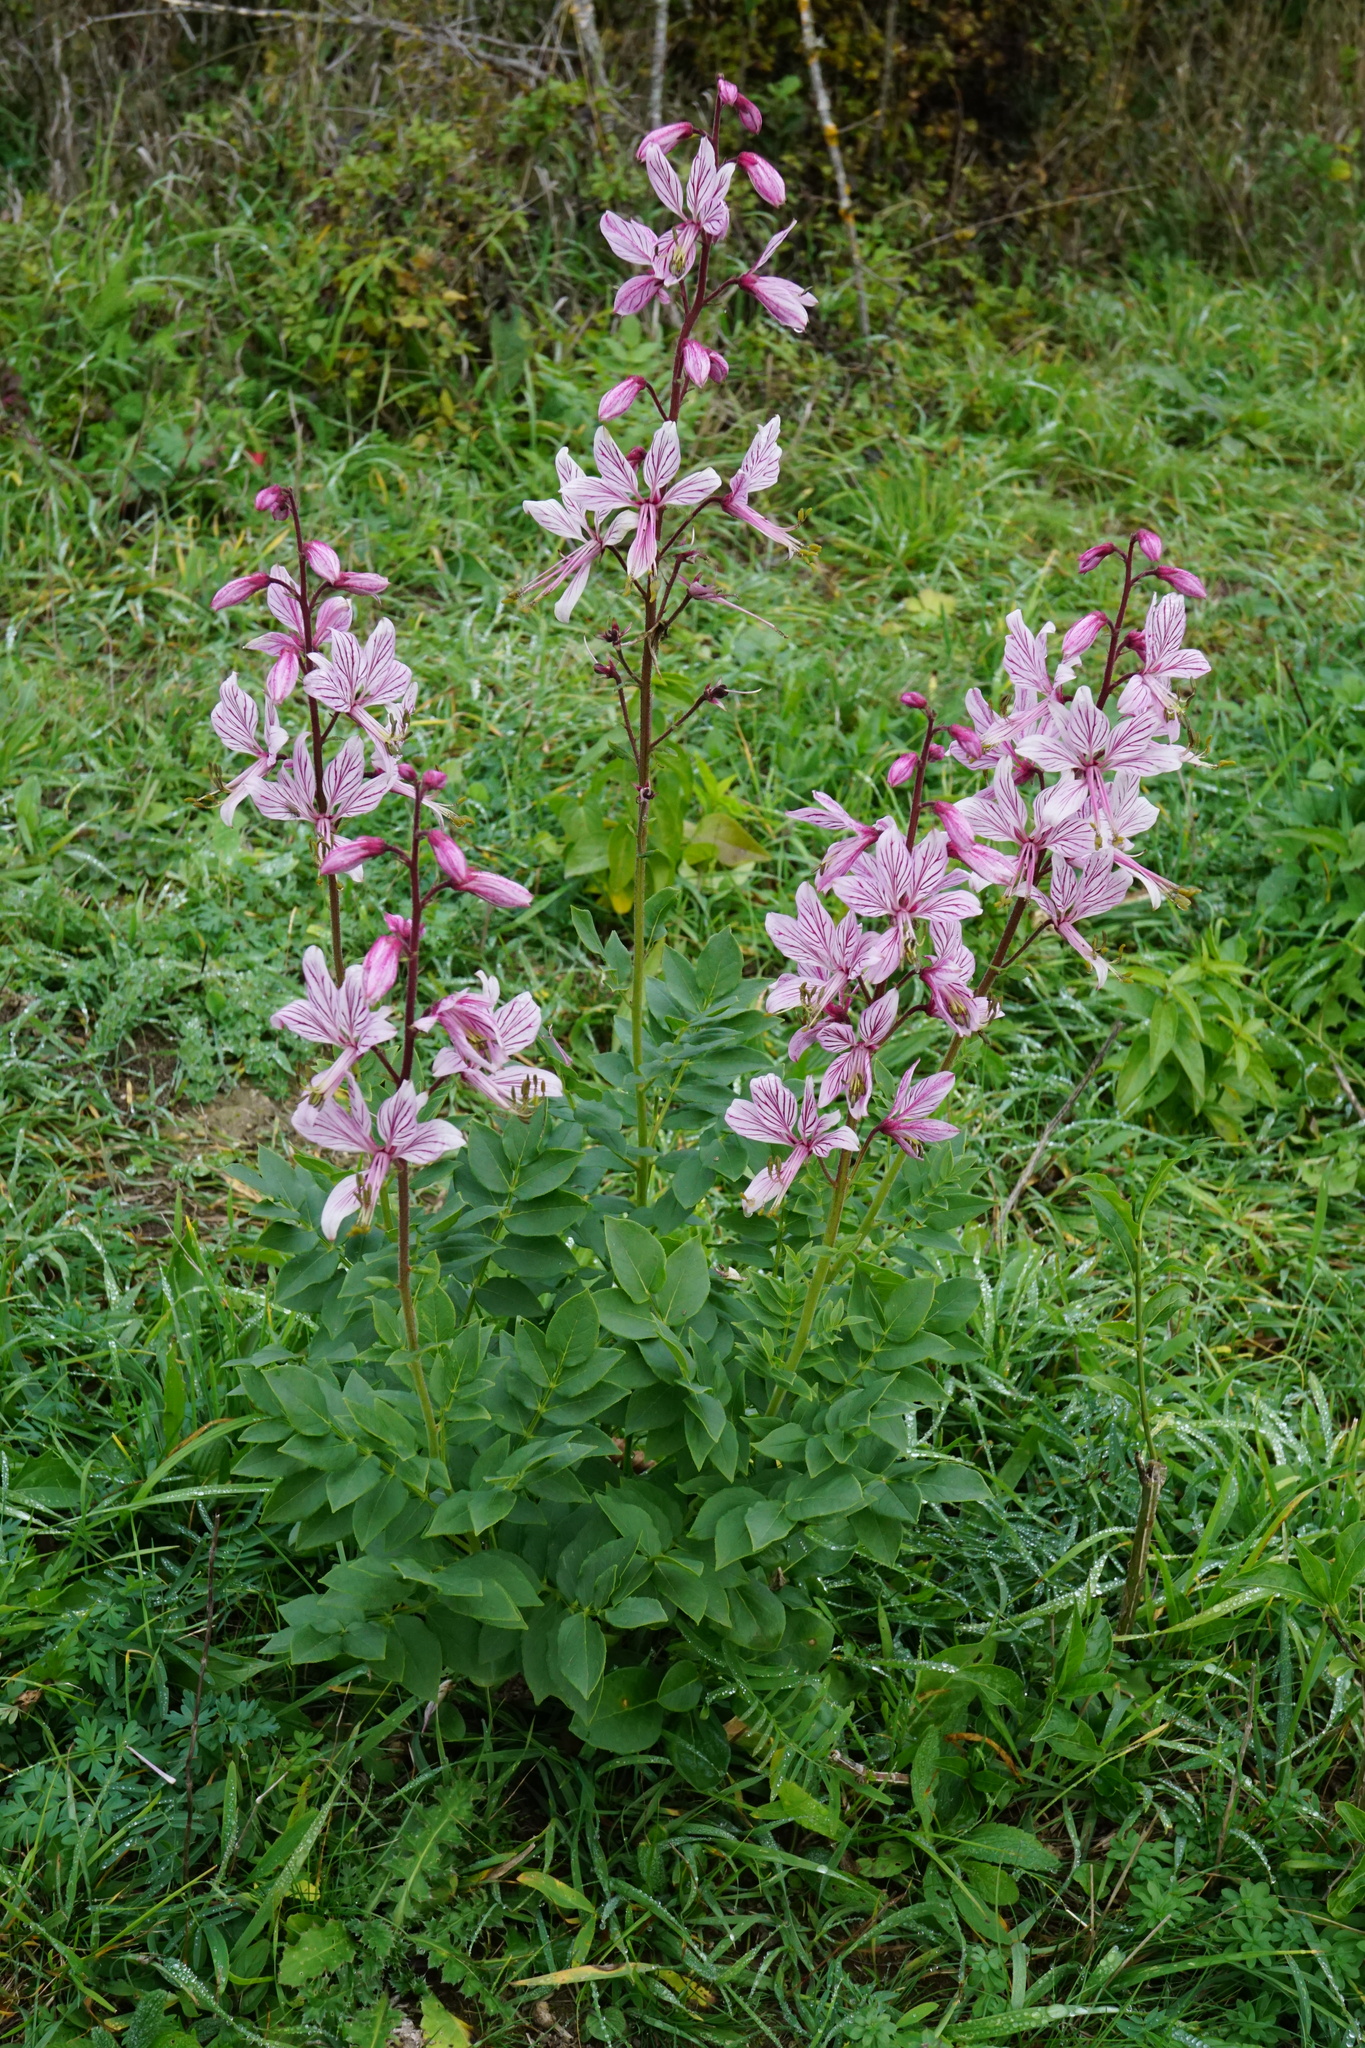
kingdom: Plantae
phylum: Tracheophyta
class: Magnoliopsida
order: Sapindales
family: Rutaceae
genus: Dictamnus
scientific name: Dictamnus albus
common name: Gasplant
